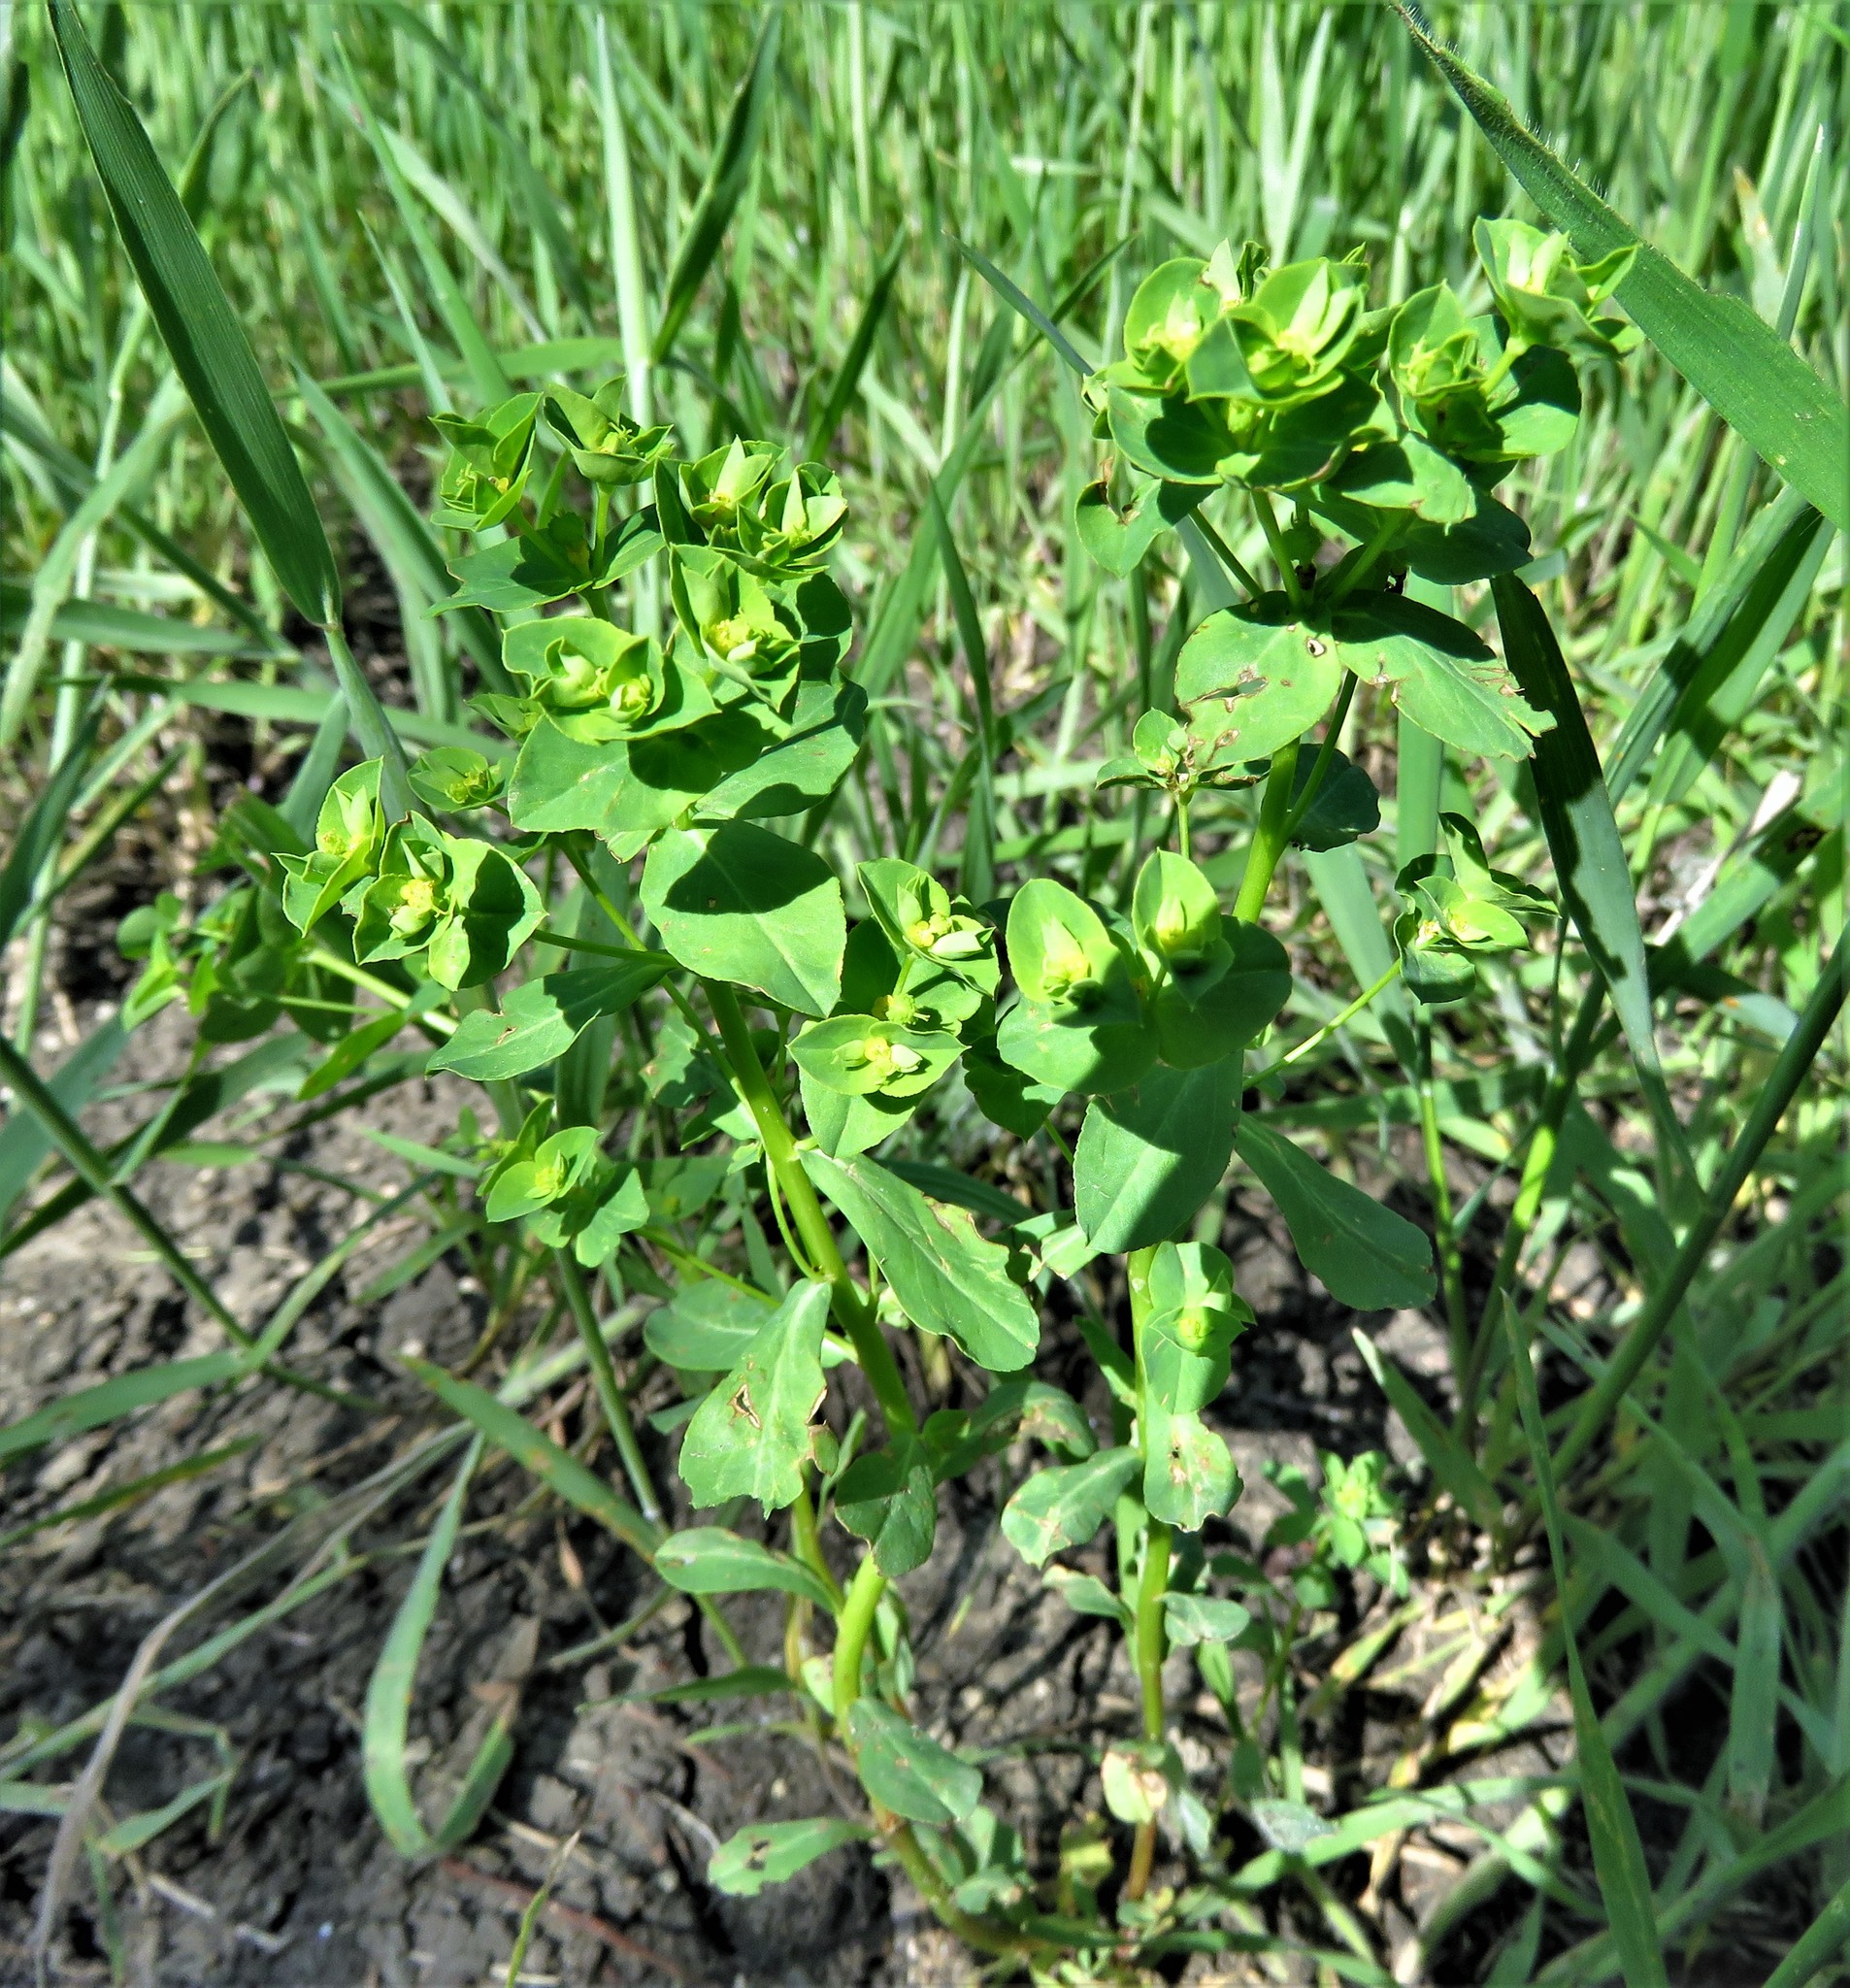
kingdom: Plantae
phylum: Tracheophyta
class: Magnoliopsida
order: Malpighiales
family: Euphorbiaceae
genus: Euphorbia
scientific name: Euphorbia spathulata
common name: Blunt spurge
